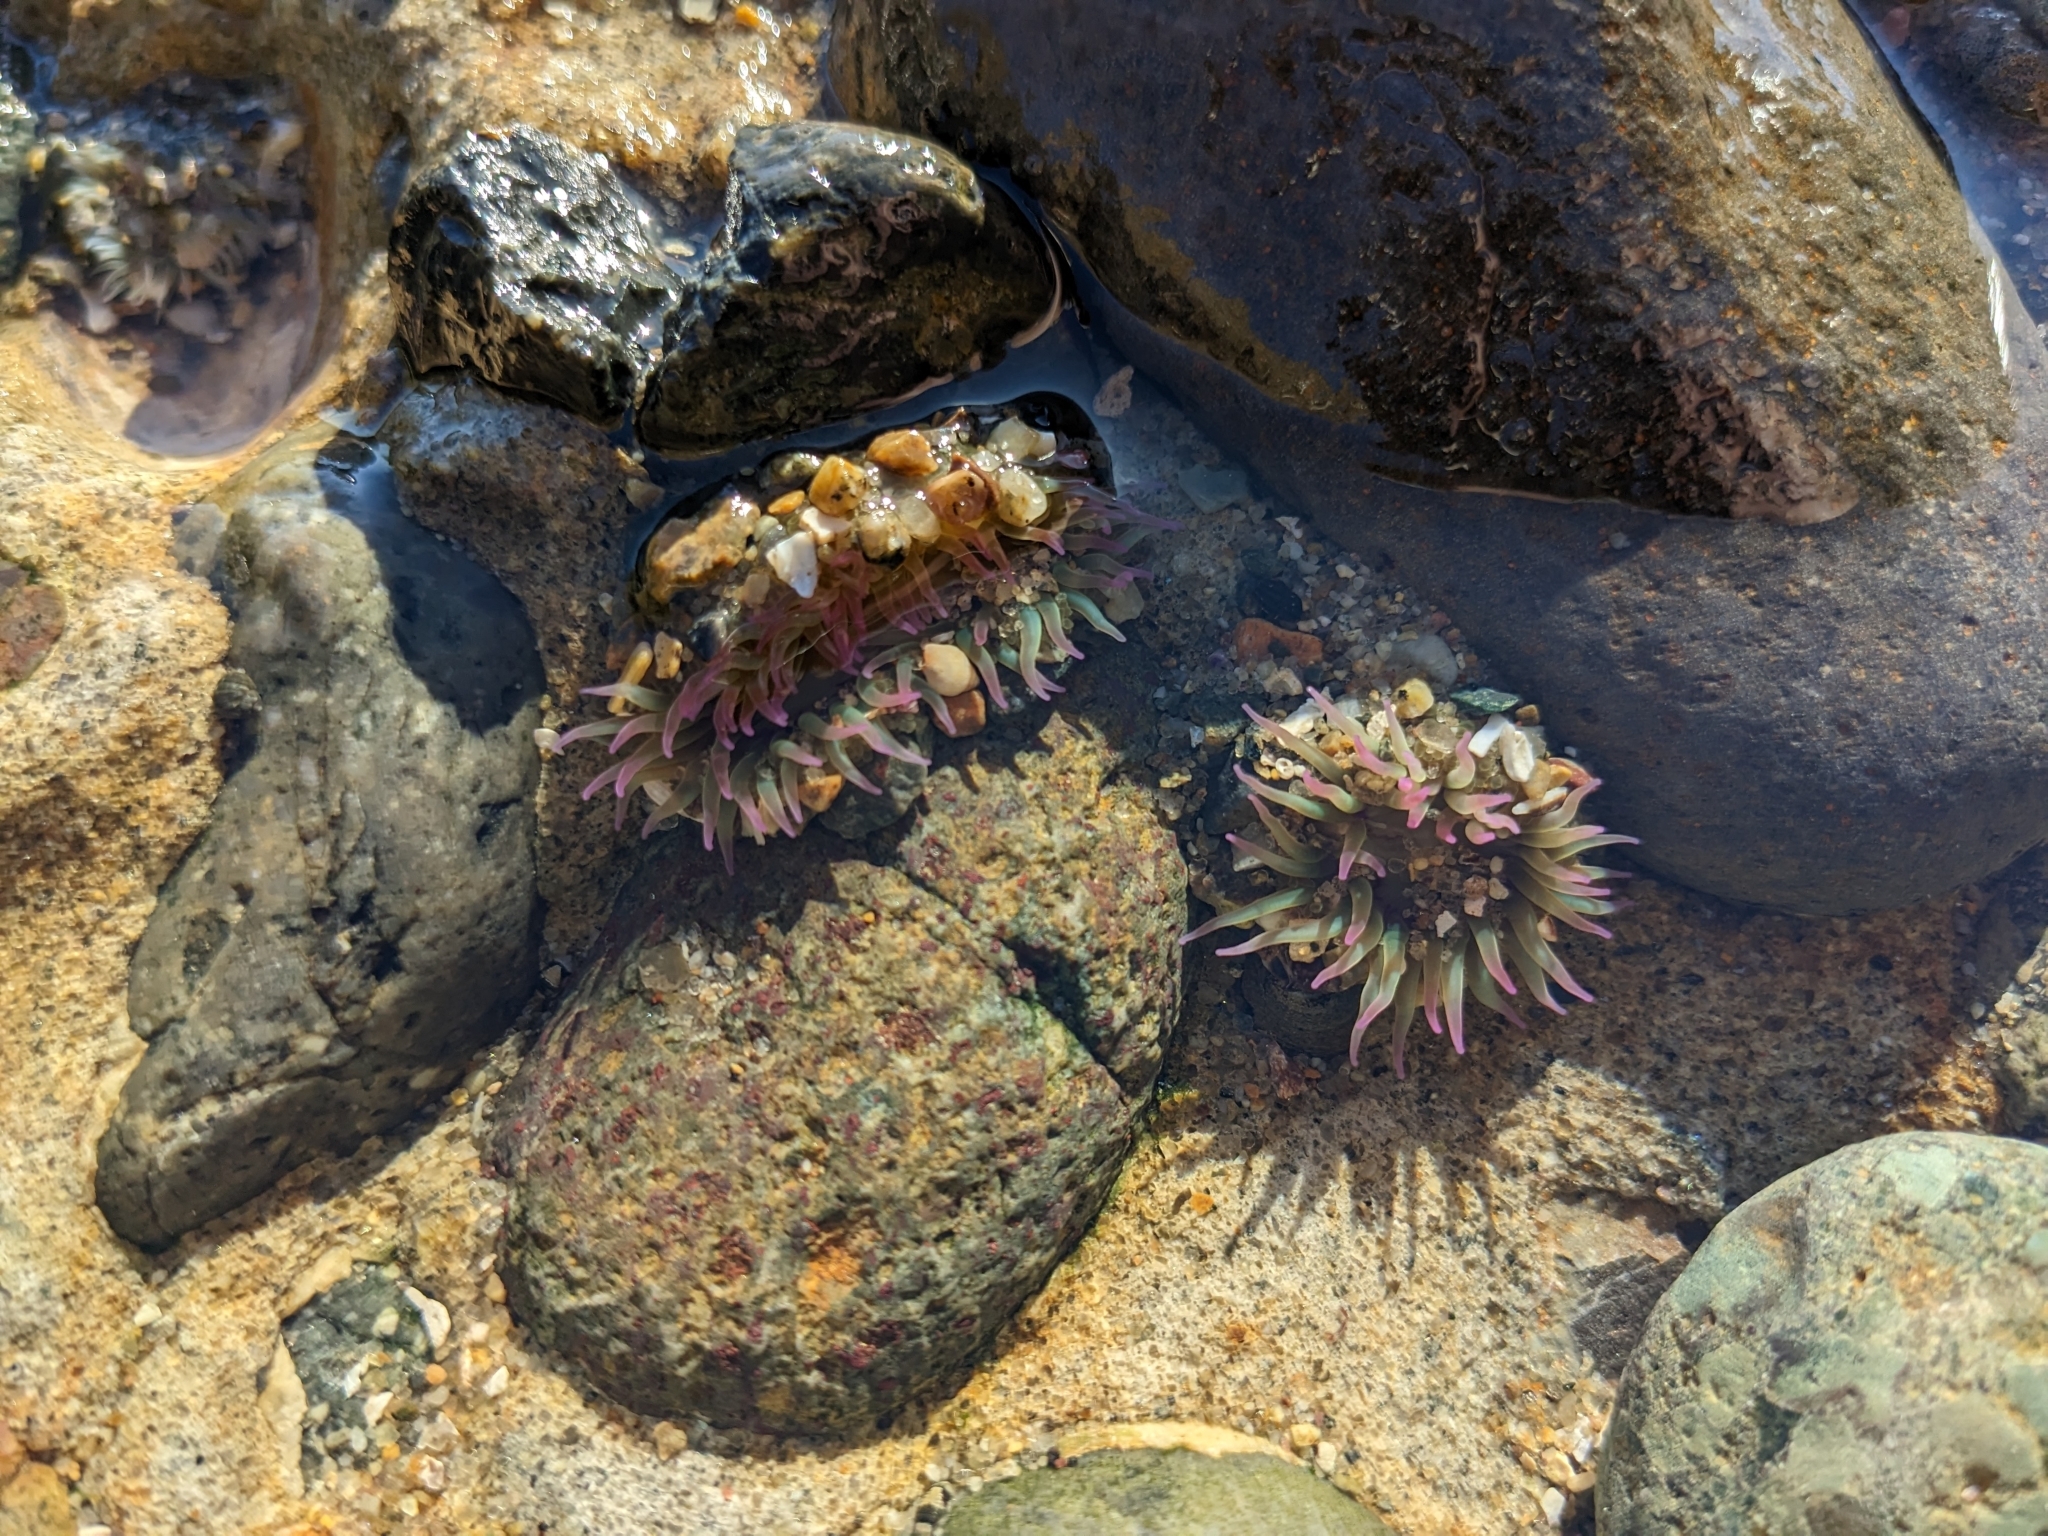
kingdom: Animalia
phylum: Cnidaria
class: Anthozoa
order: Actiniaria
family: Actiniidae
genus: Anthopleura
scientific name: Anthopleura elegantissima
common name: Clonal anemone
